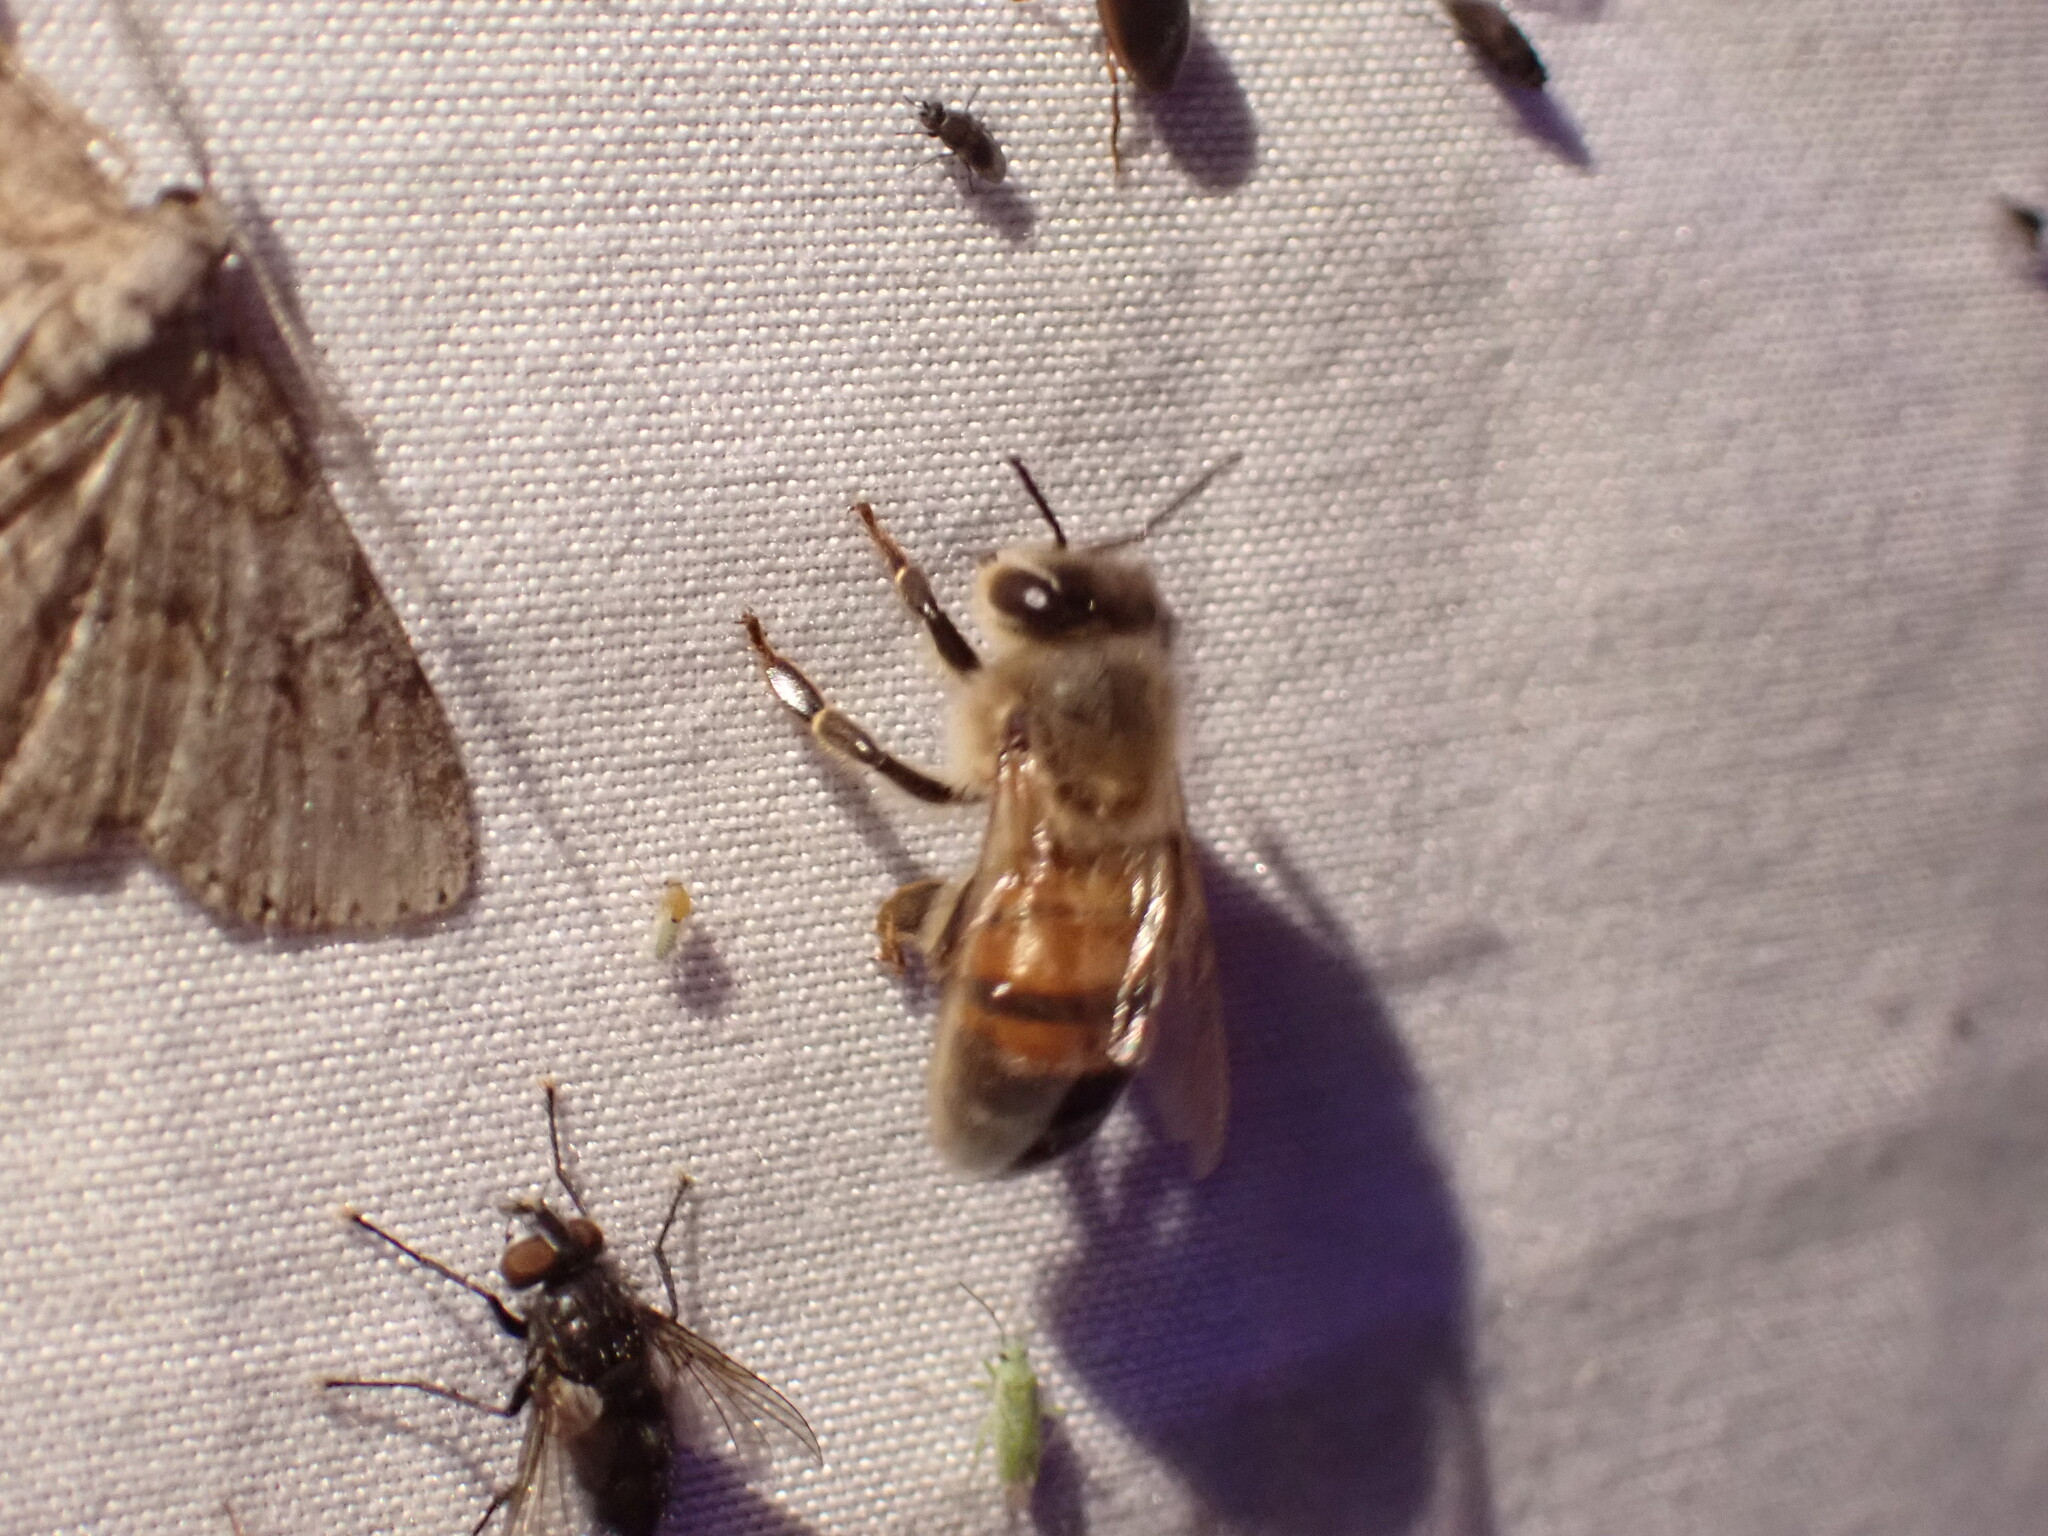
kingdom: Animalia
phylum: Arthropoda
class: Insecta
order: Hymenoptera
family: Apidae
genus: Apis
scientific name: Apis mellifera
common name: Honey bee
